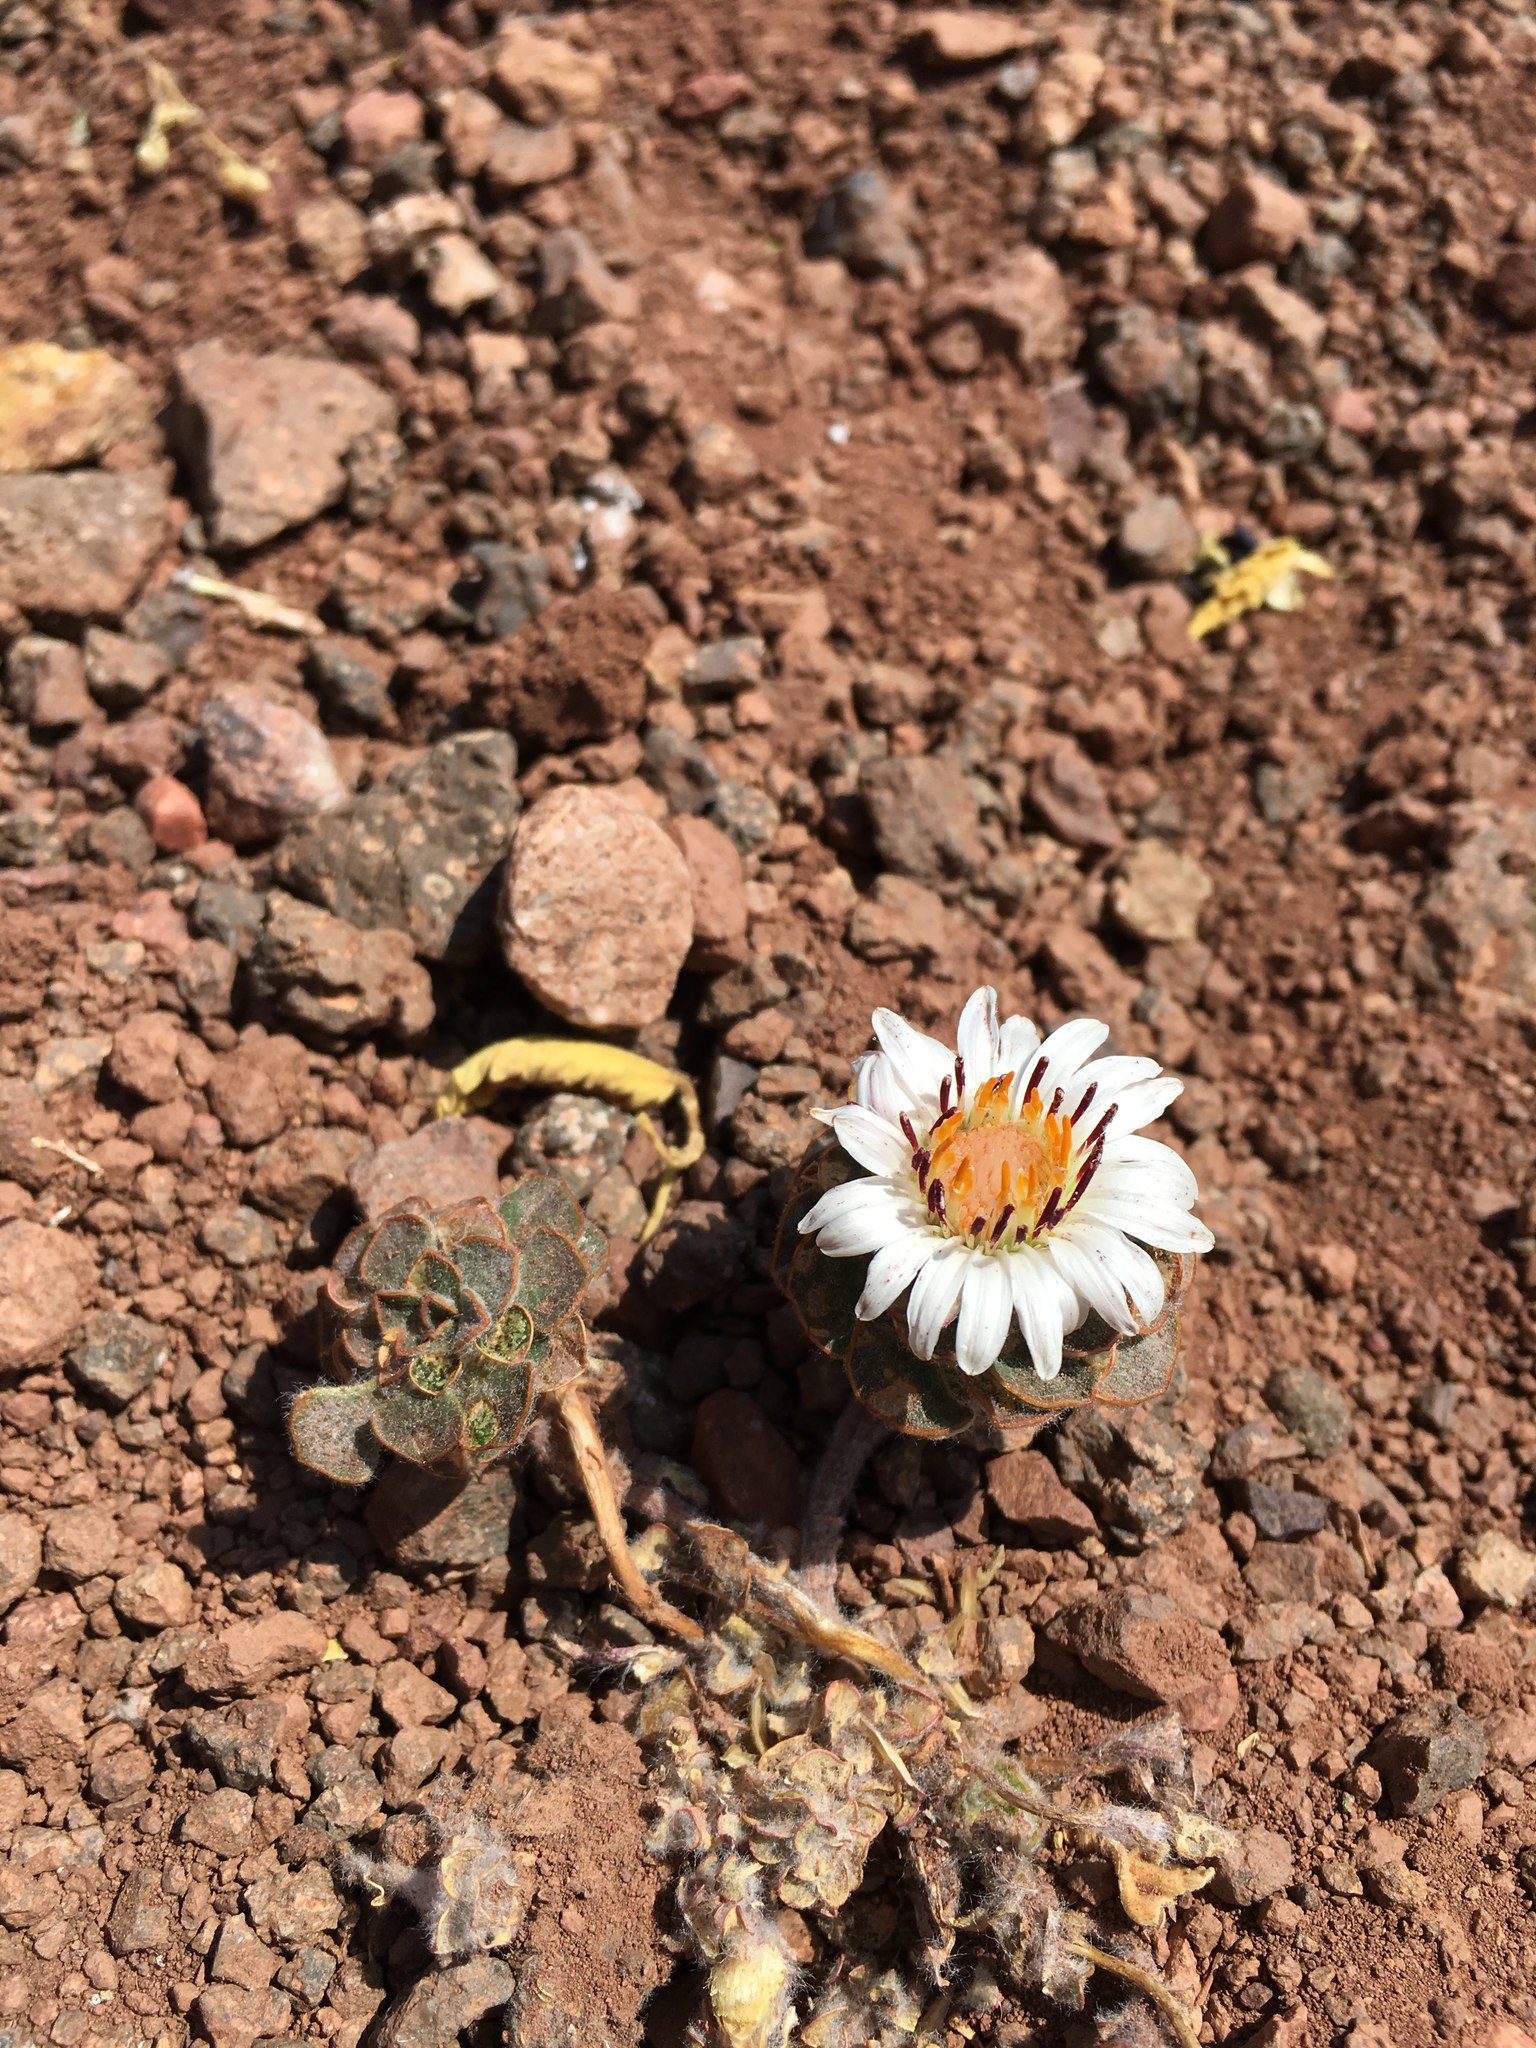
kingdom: Plantae
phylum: Tracheophyta
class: Magnoliopsida
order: Asterales
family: Asteraceae
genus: Chaetanthera
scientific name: Chaetanthera lanata
